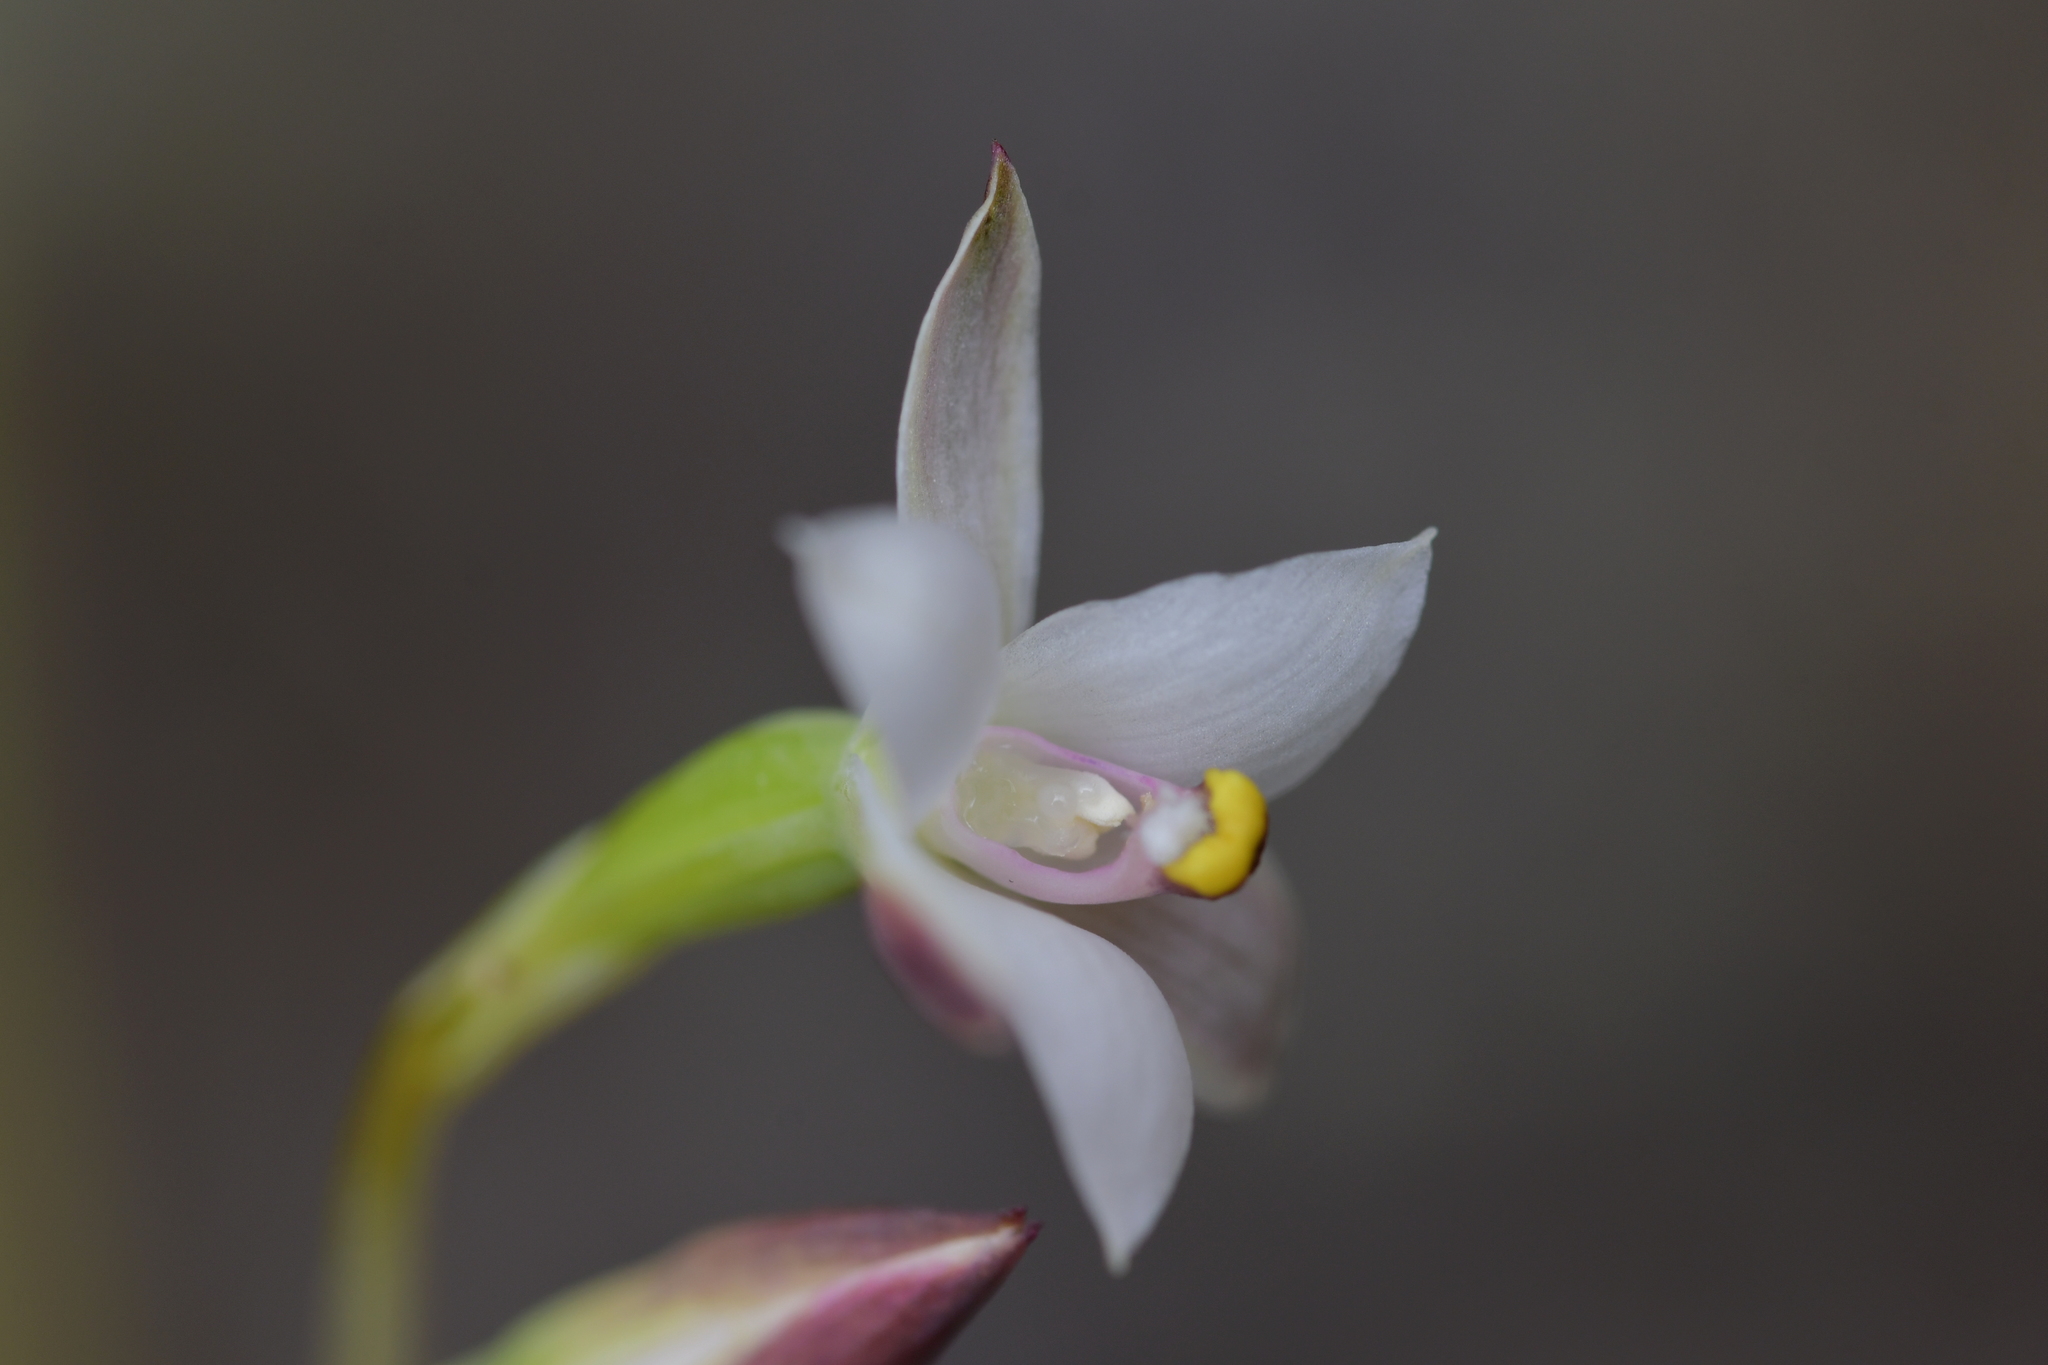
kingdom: Plantae
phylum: Tracheophyta
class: Liliopsida
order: Asparagales
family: Orchidaceae
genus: Thelymitra
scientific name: Thelymitra longifolia
